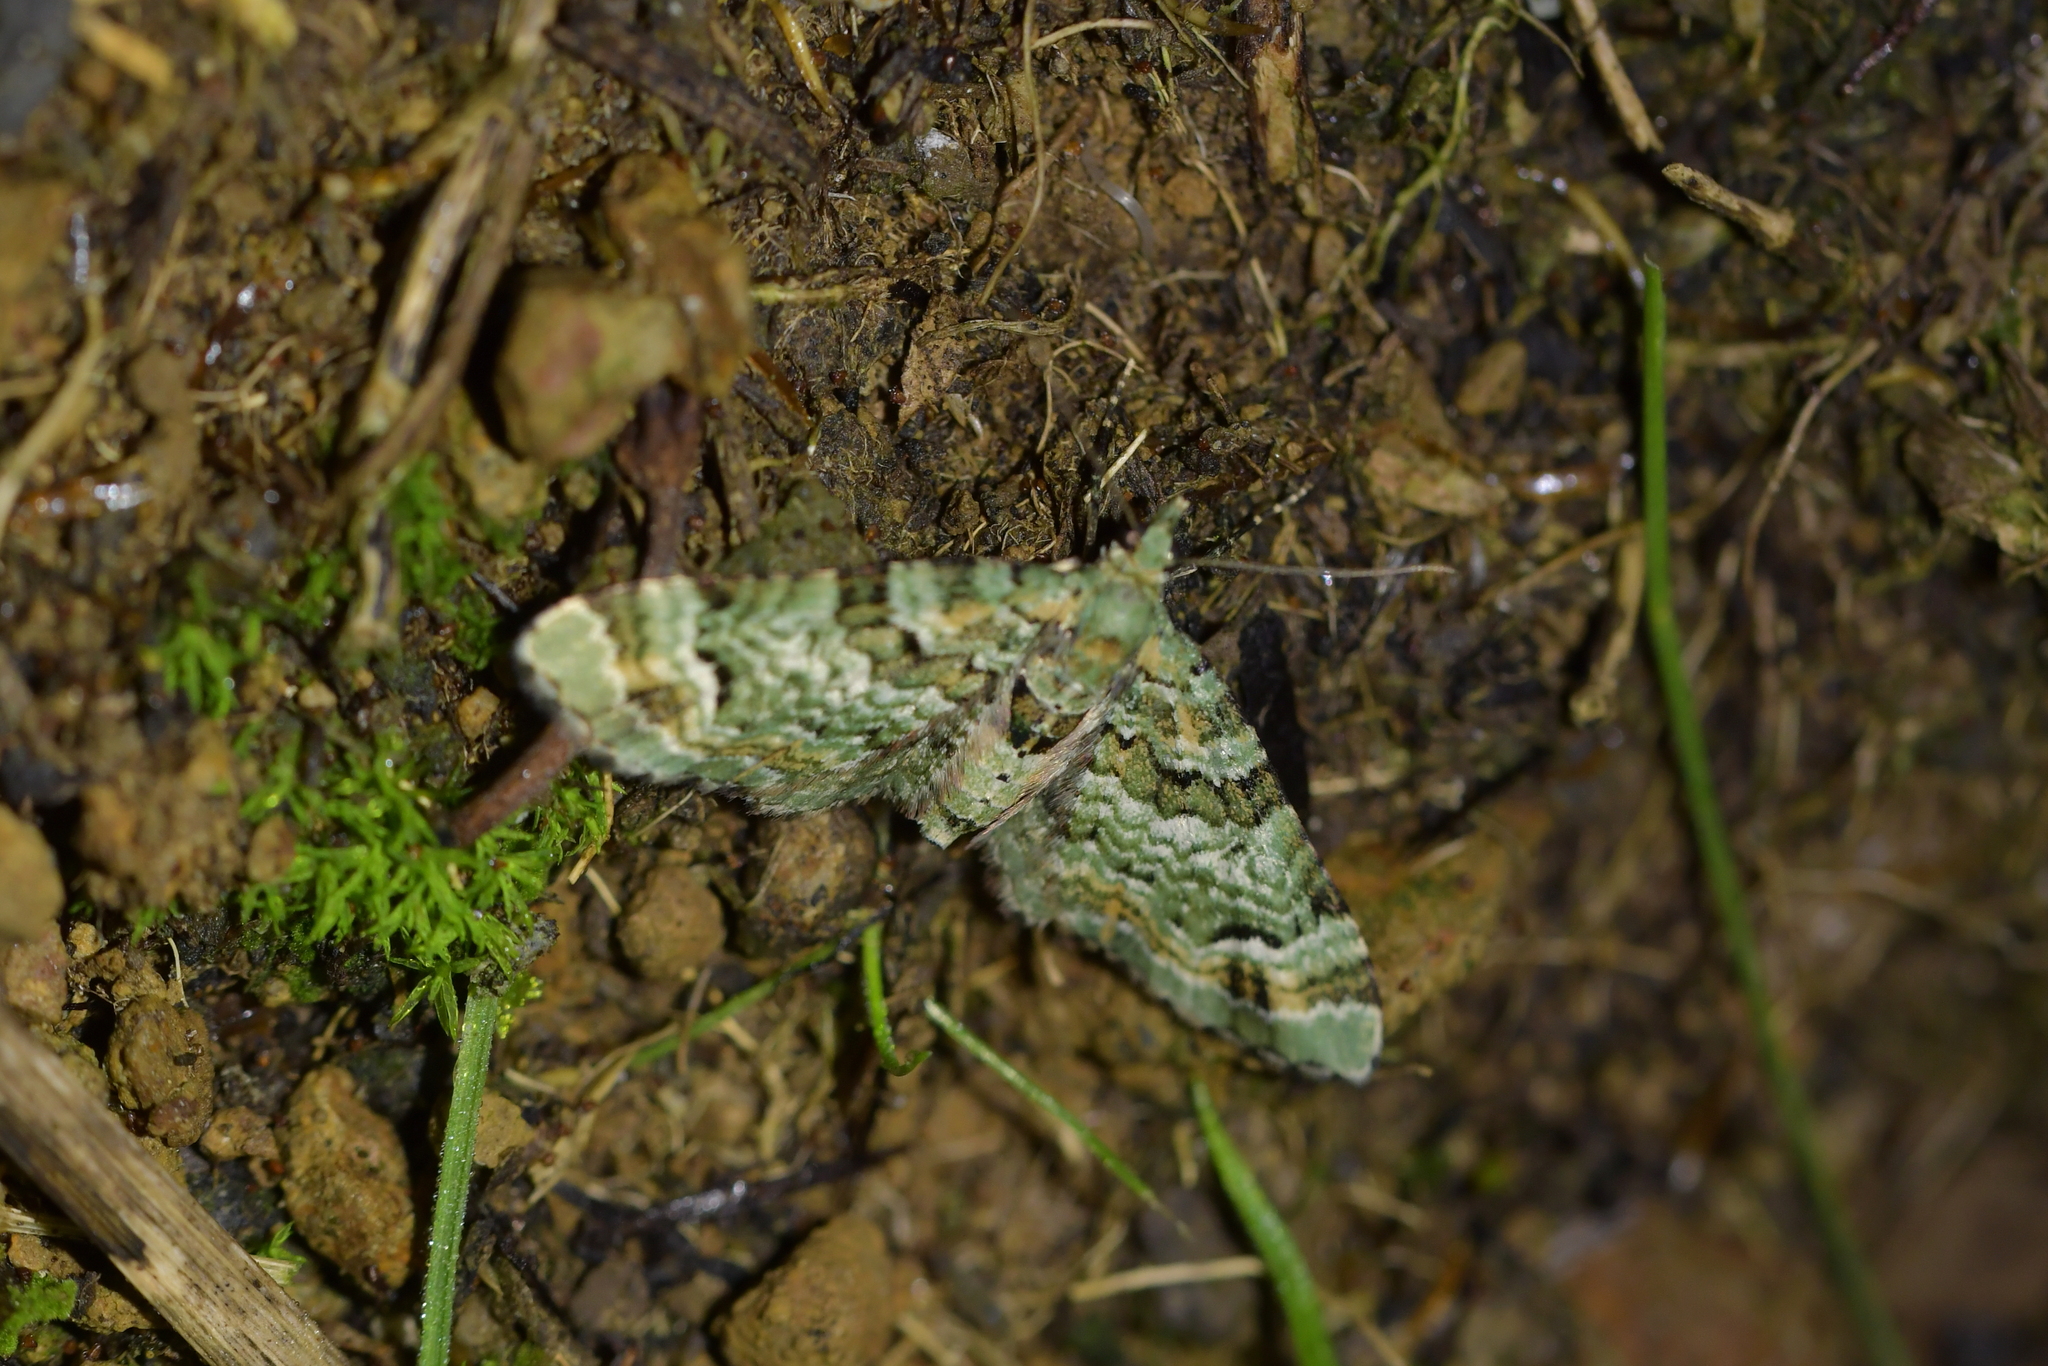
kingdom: Animalia
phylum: Arthropoda
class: Insecta
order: Lepidoptera
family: Geometridae
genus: Pasiphila
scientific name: Pasiphila bilineolata
